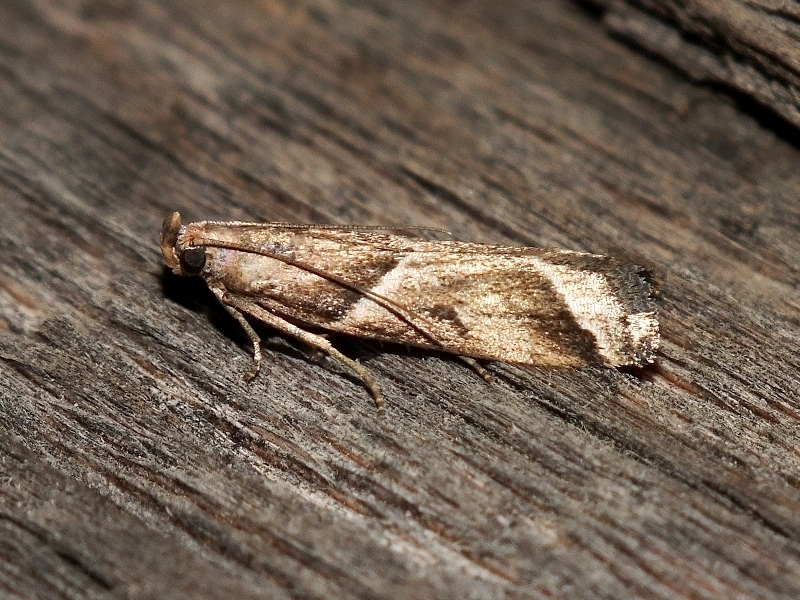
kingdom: Animalia
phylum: Arthropoda
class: Insecta
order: Lepidoptera
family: Pyralidae
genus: Nyctegretis
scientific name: Nyctegretis lineana
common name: Agate knot-horn
